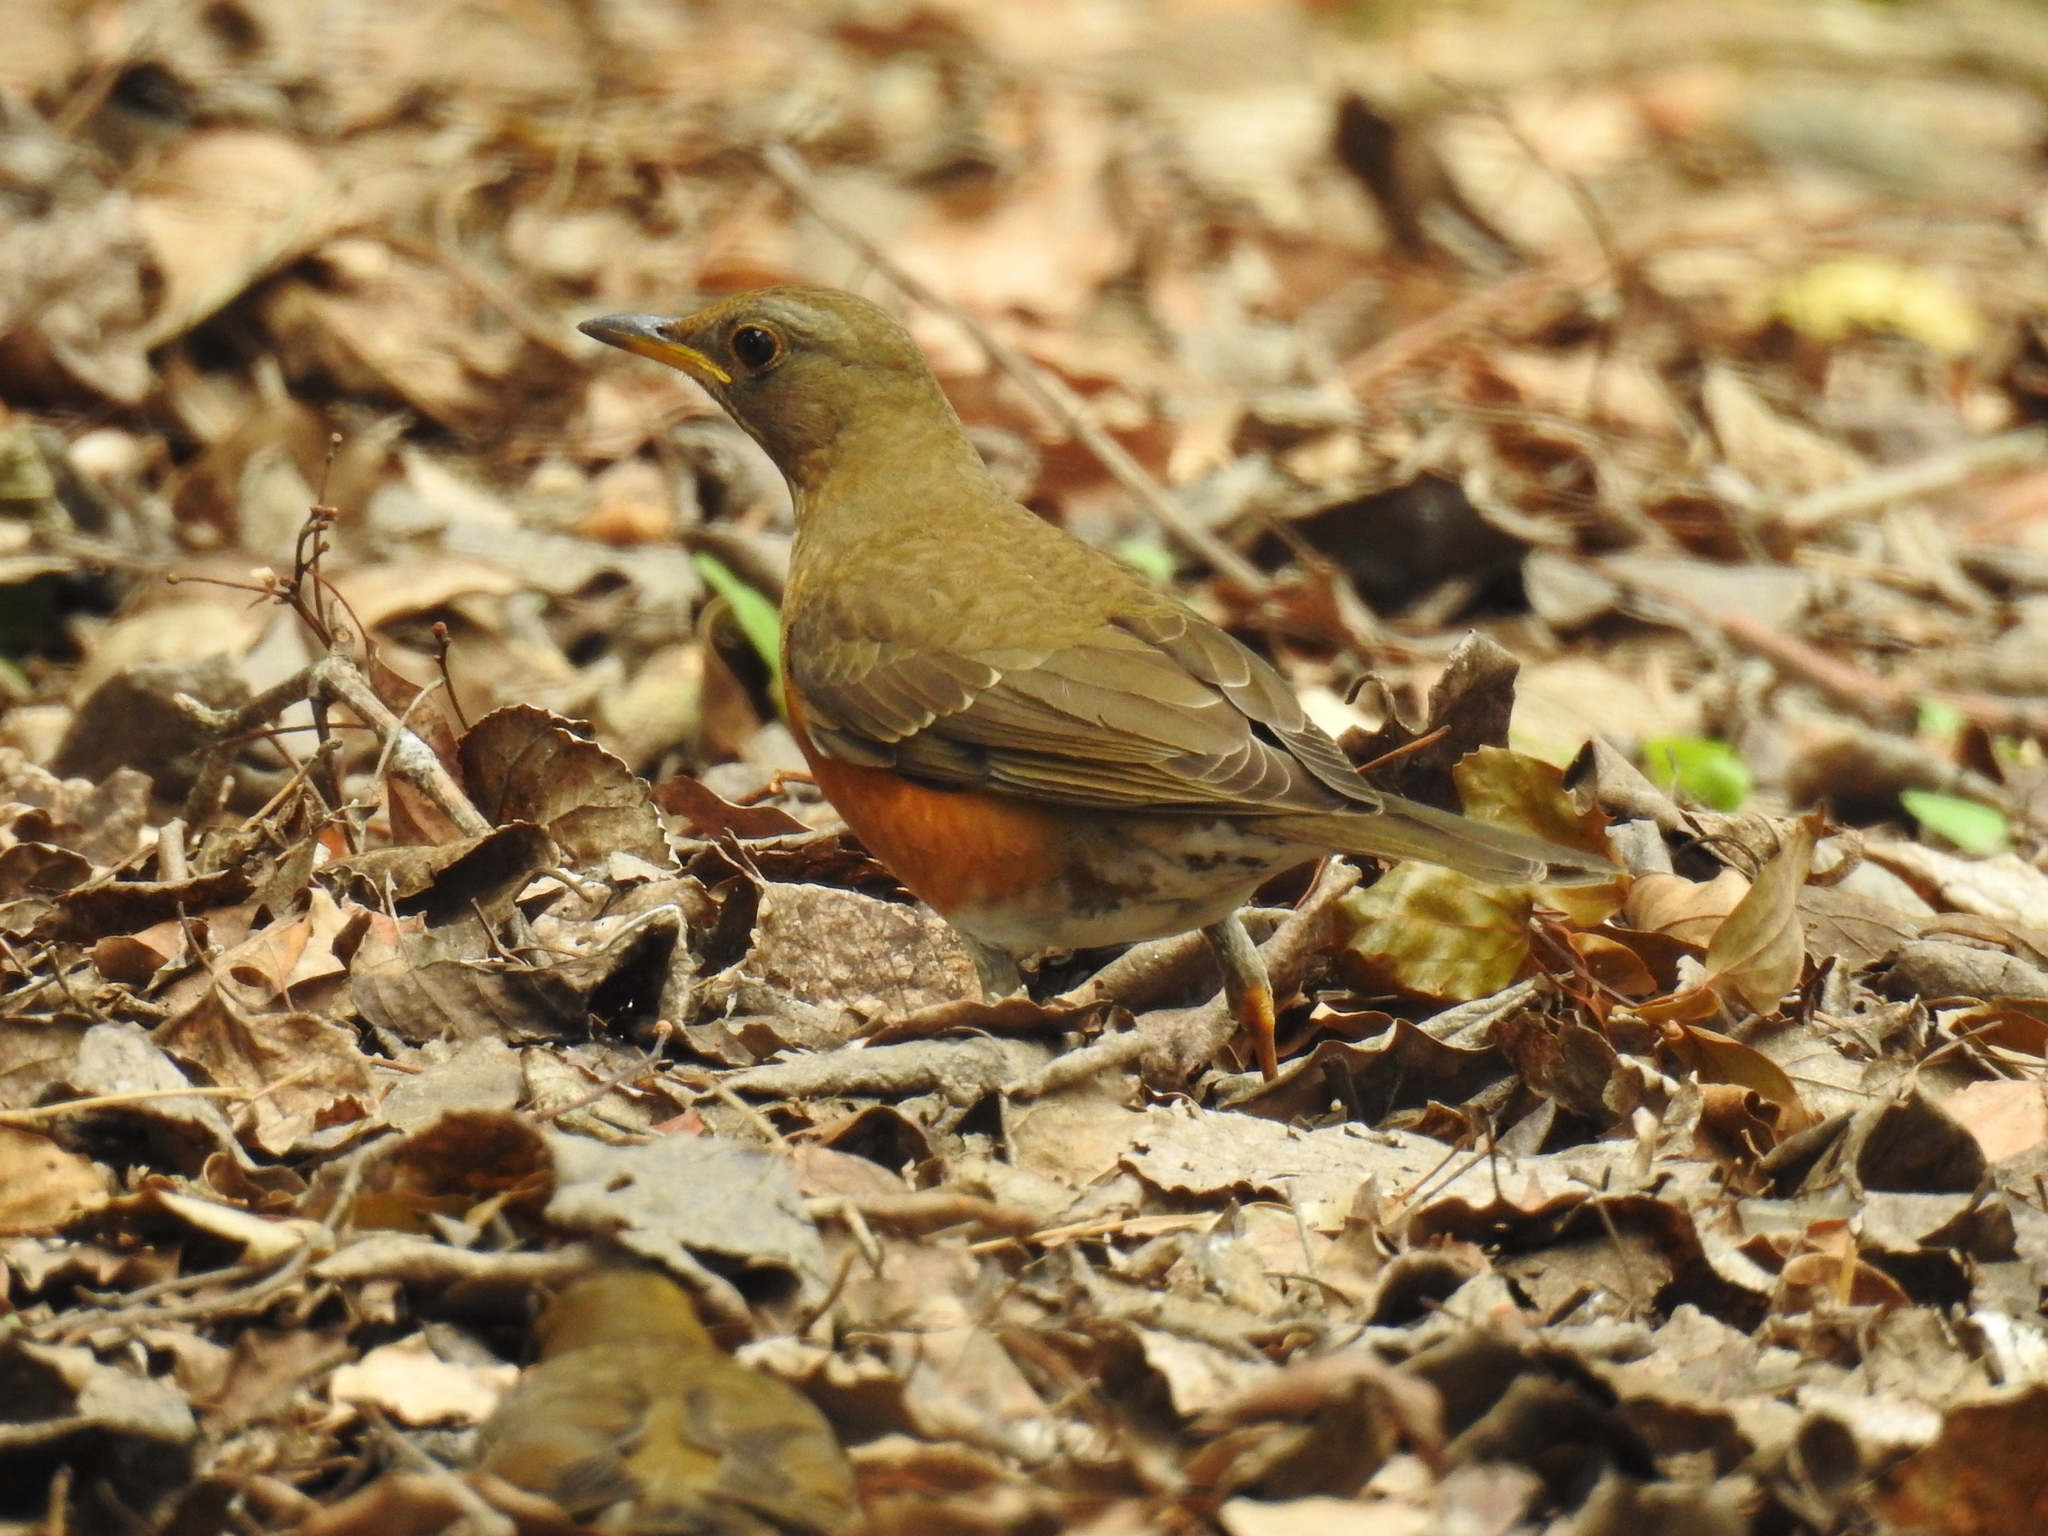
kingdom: Animalia
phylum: Chordata
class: Aves
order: Passeriformes
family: Turdidae
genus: Turdus
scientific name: Turdus chrysolaus
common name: Brown-headed thrush
